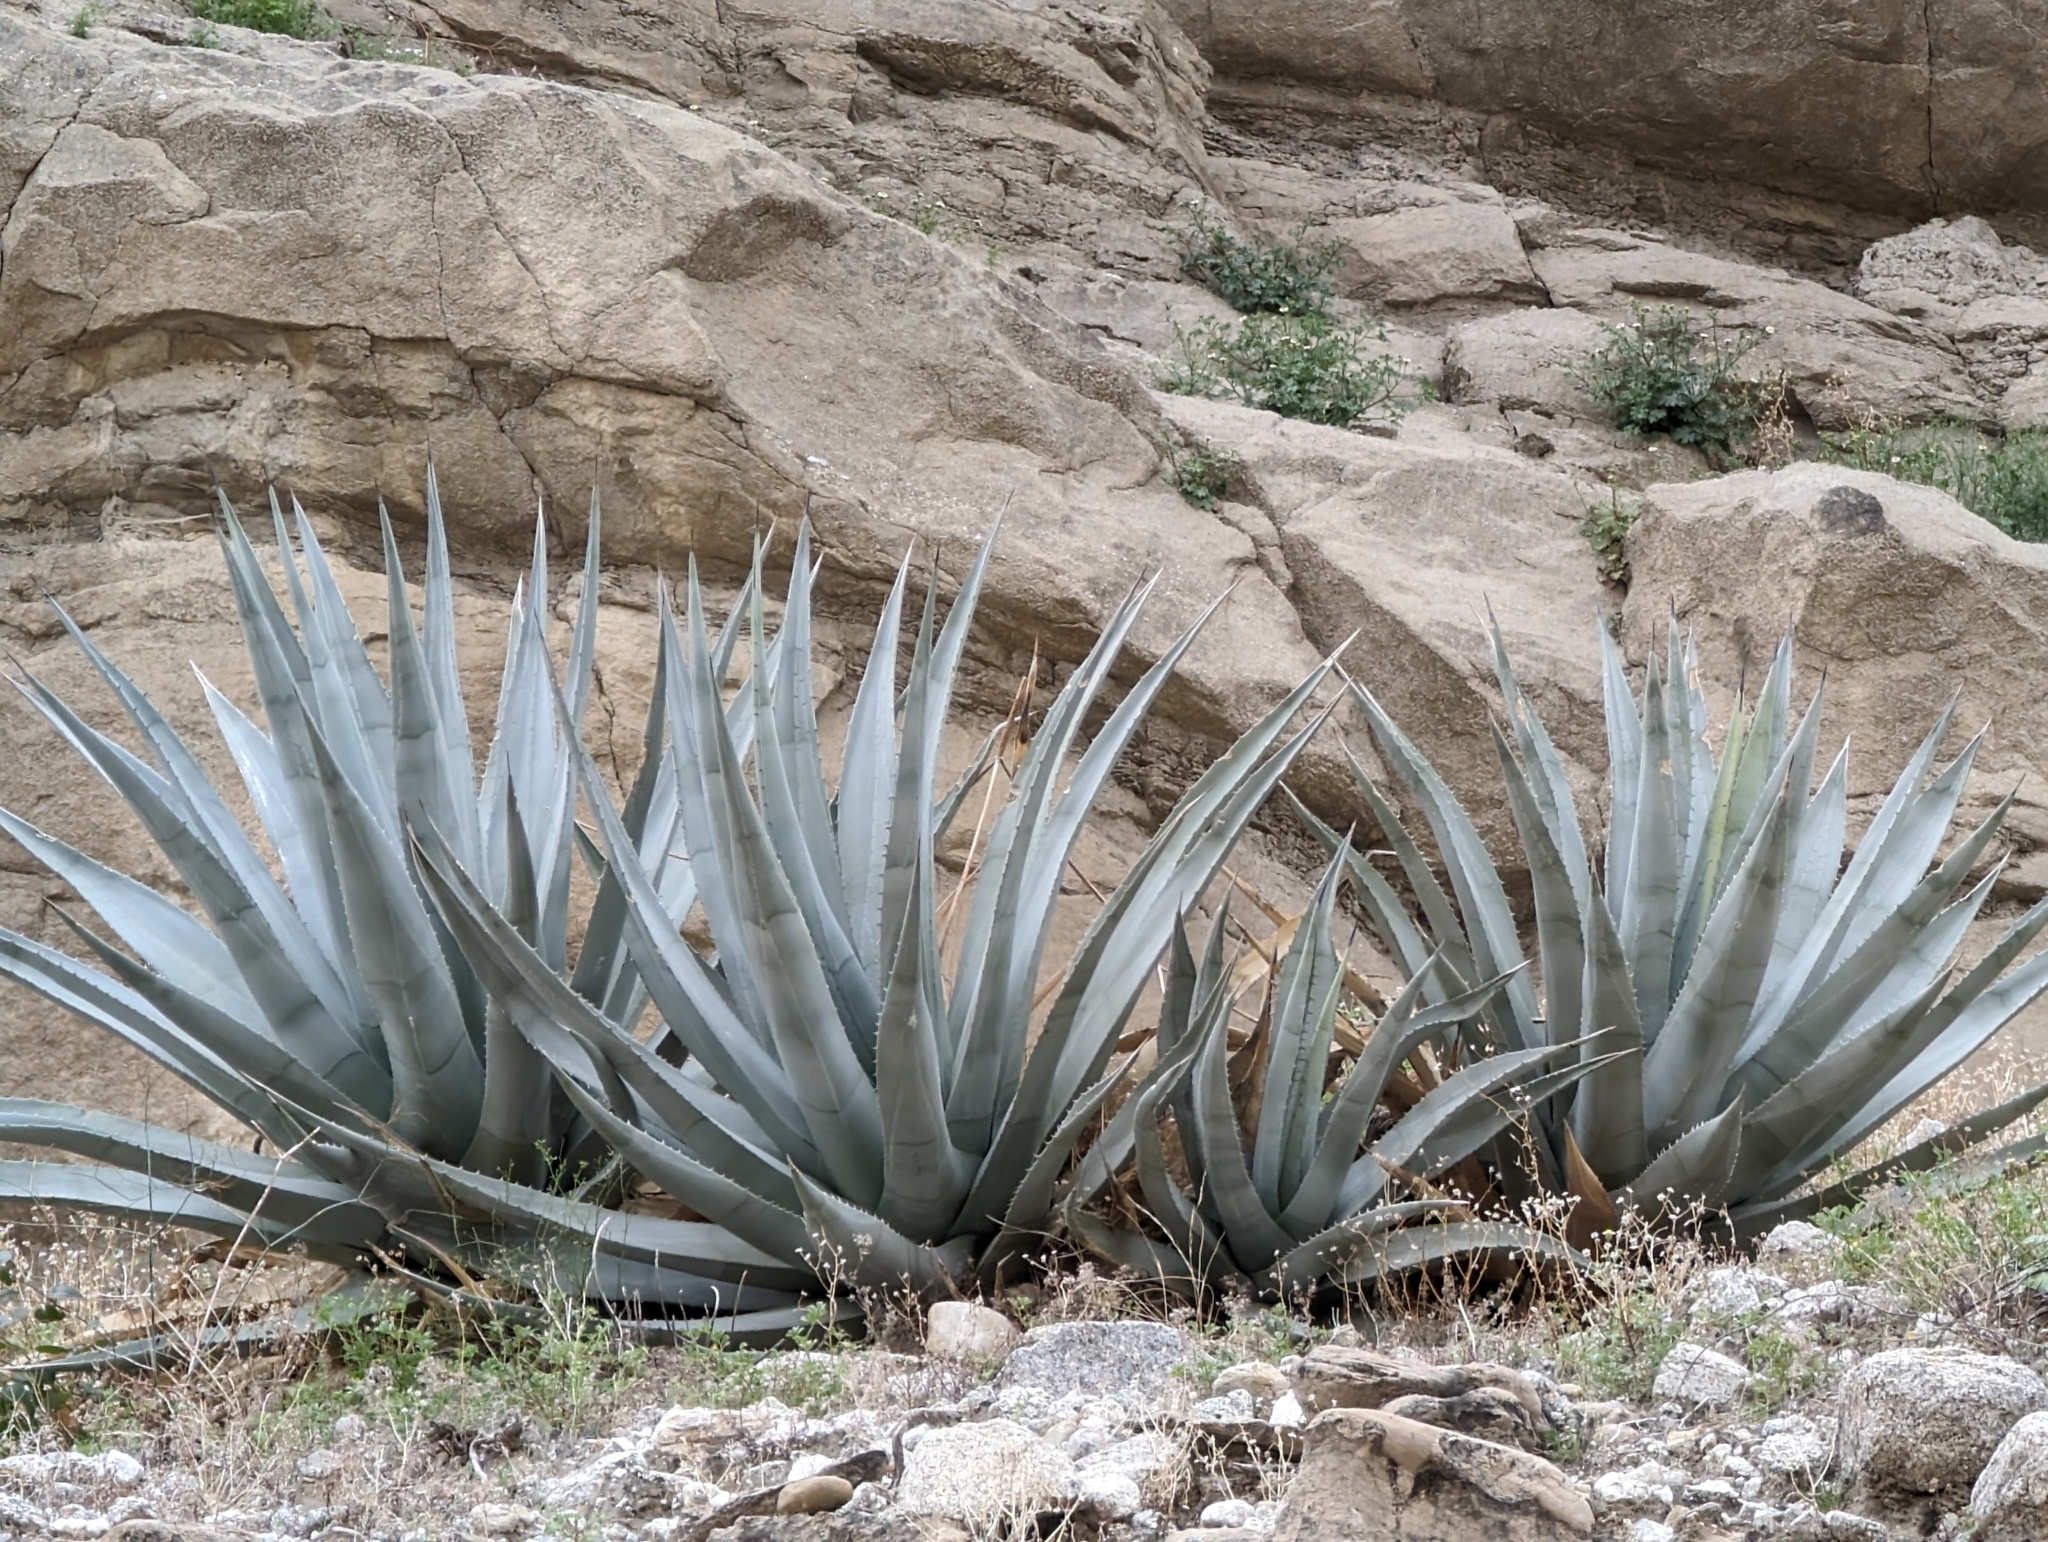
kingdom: Plantae
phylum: Tracheophyta
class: Liliopsida
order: Asparagales
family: Asparagaceae
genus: Agave
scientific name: Agave deserti
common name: Desert agave
